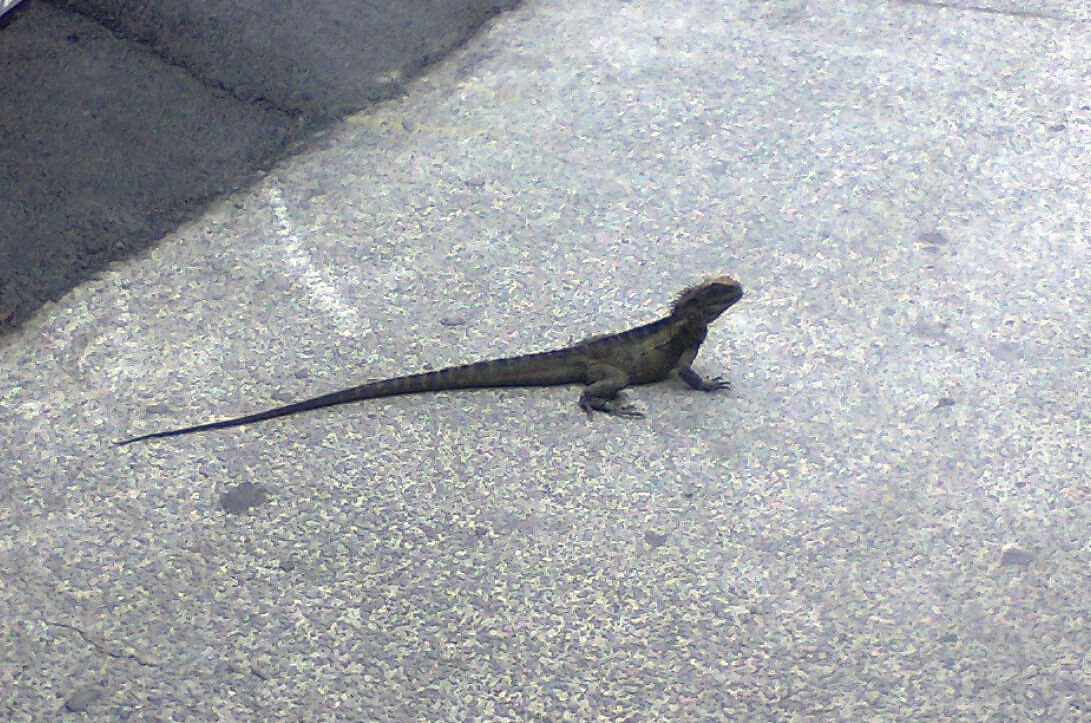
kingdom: Animalia
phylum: Chordata
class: Squamata
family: Agamidae
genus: Intellagama
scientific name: Intellagama lesueurii
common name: Eastern water dragon
